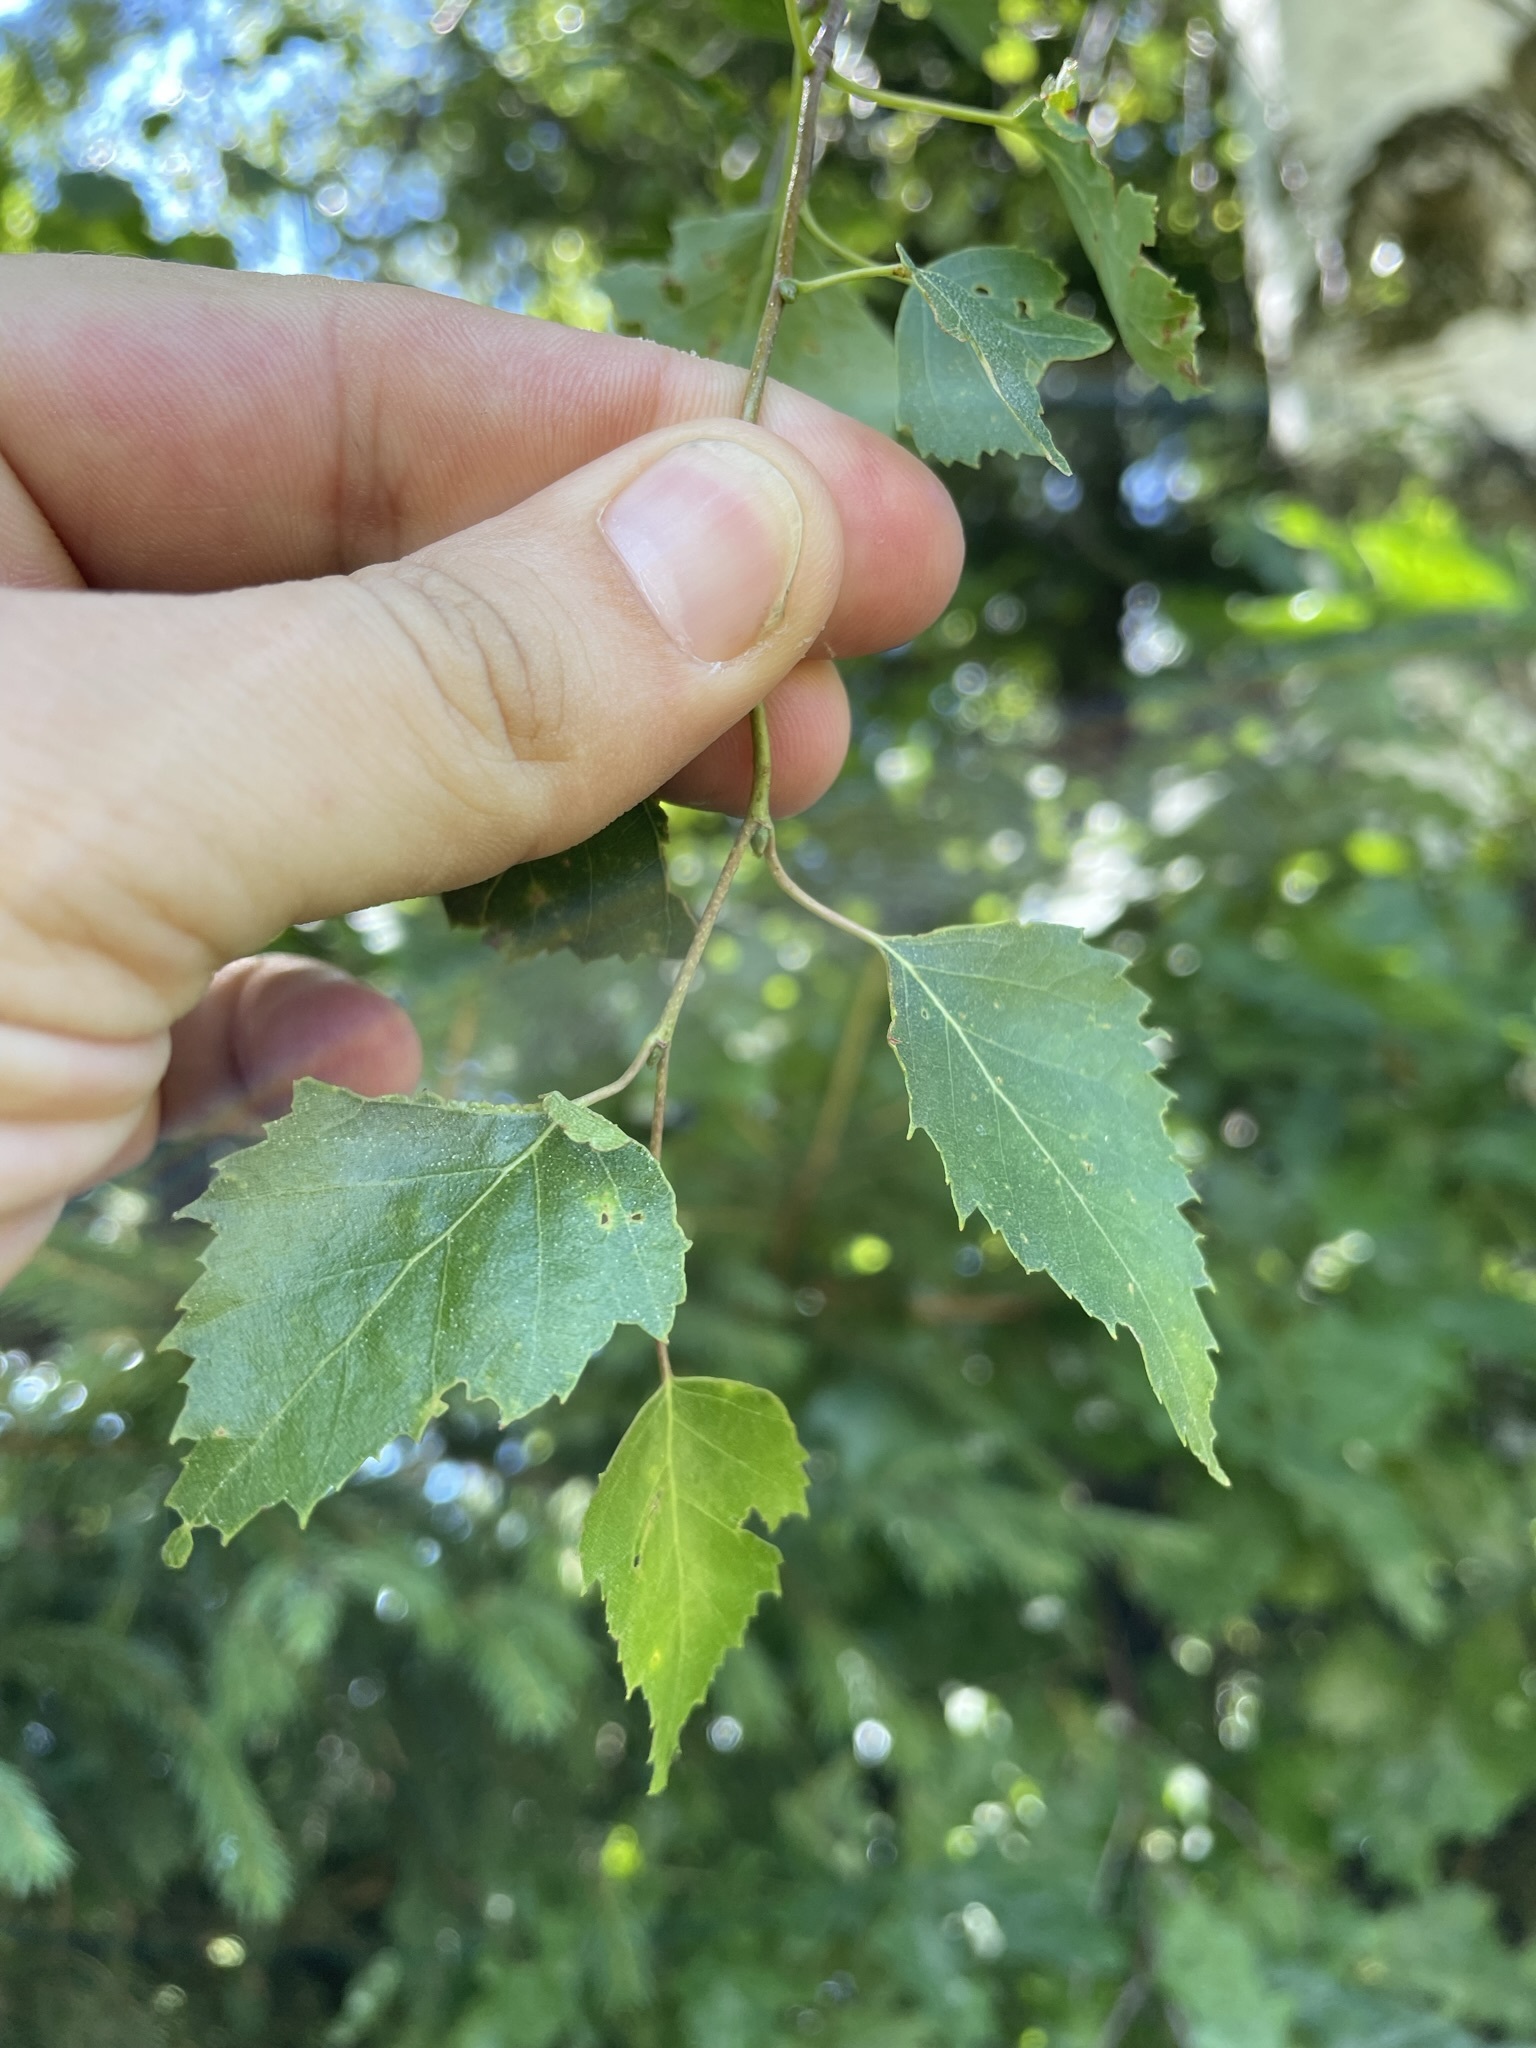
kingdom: Plantae
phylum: Tracheophyta
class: Magnoliopsida
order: Fagales
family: Betulaceae
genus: Betula
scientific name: Betula pendula
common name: Silver birch
